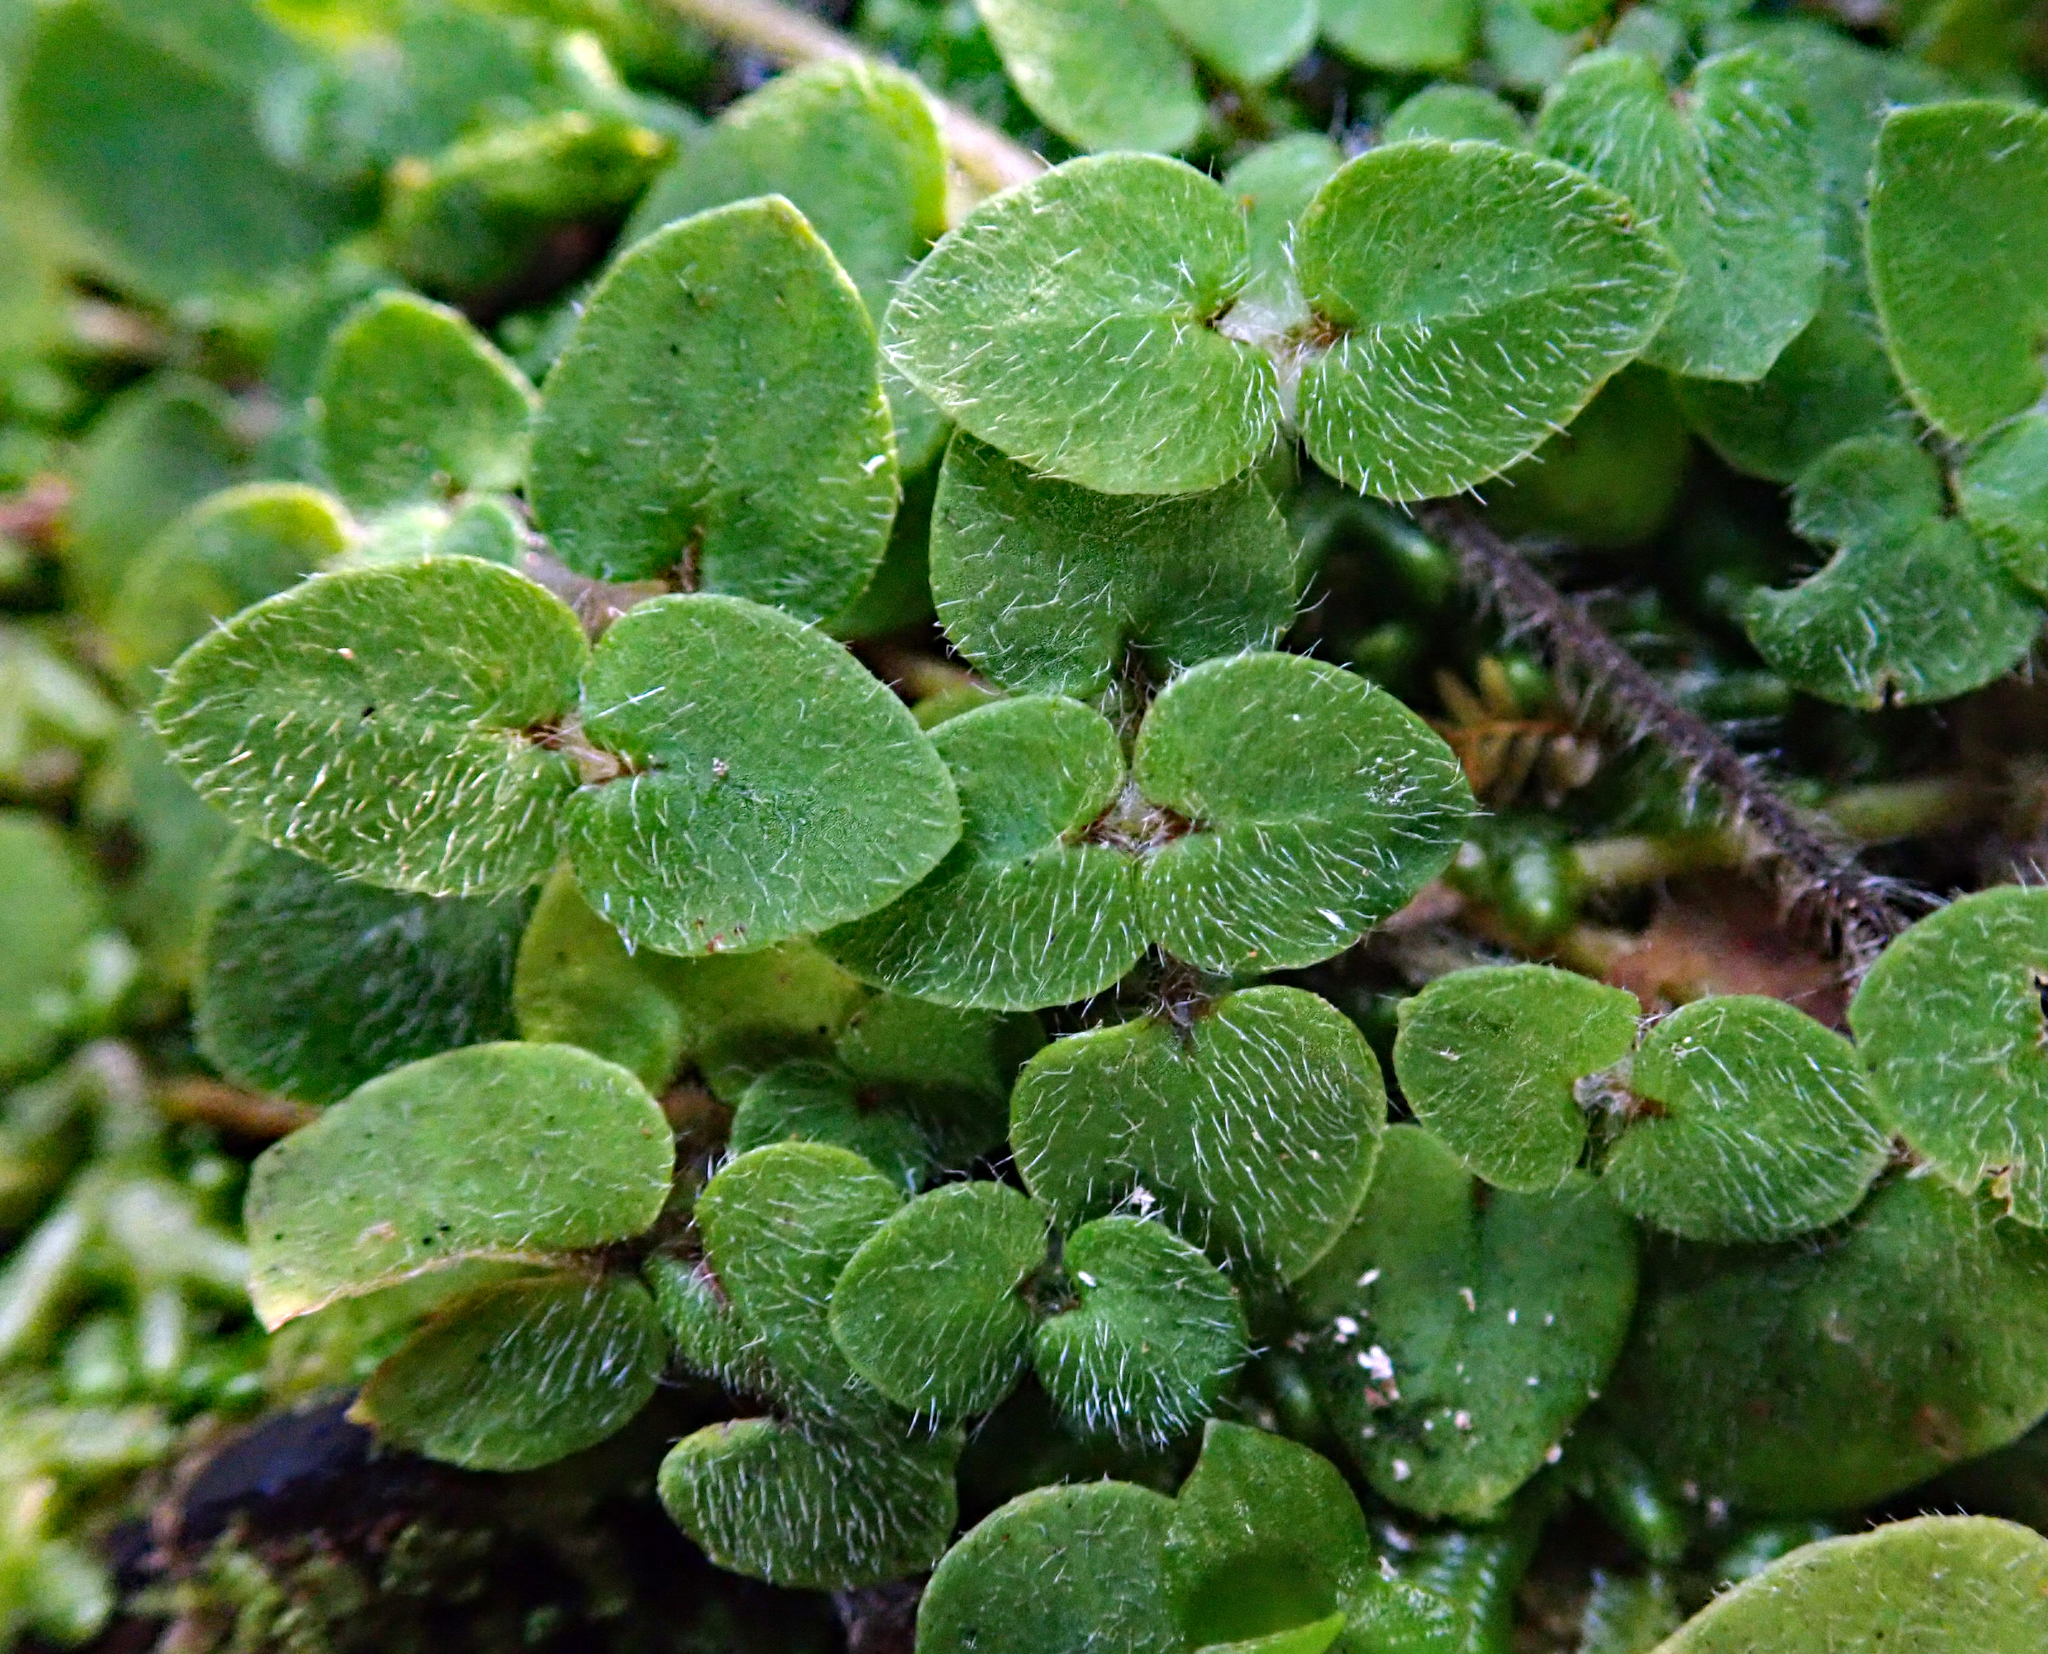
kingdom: Plantae
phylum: Tracheophyta
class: Magnoliopsida
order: Gentianales
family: Rubiaceae
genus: Nertera
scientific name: Nertera villosa
